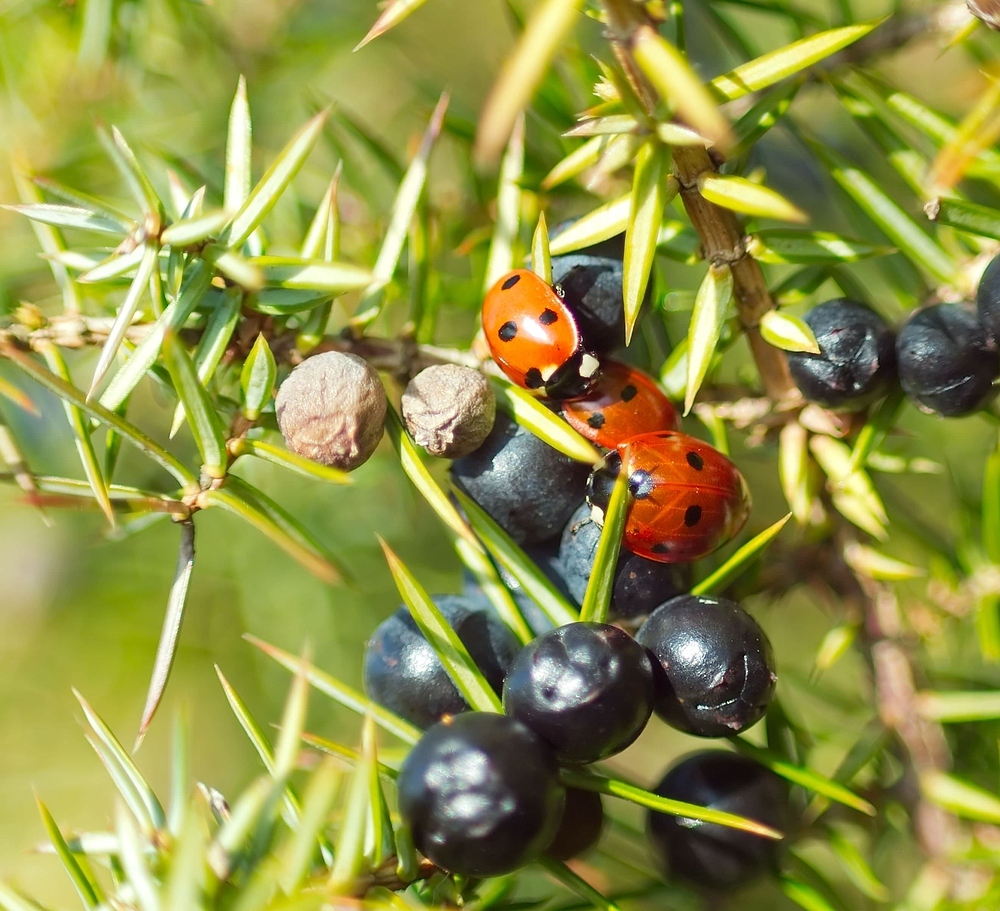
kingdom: Animalia
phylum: Arthropoda
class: Insecta
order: Coleoptera
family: Coccinellidae
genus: Coccinella
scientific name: Coccinella septempunctata
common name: Sevenspotted lady beetle
